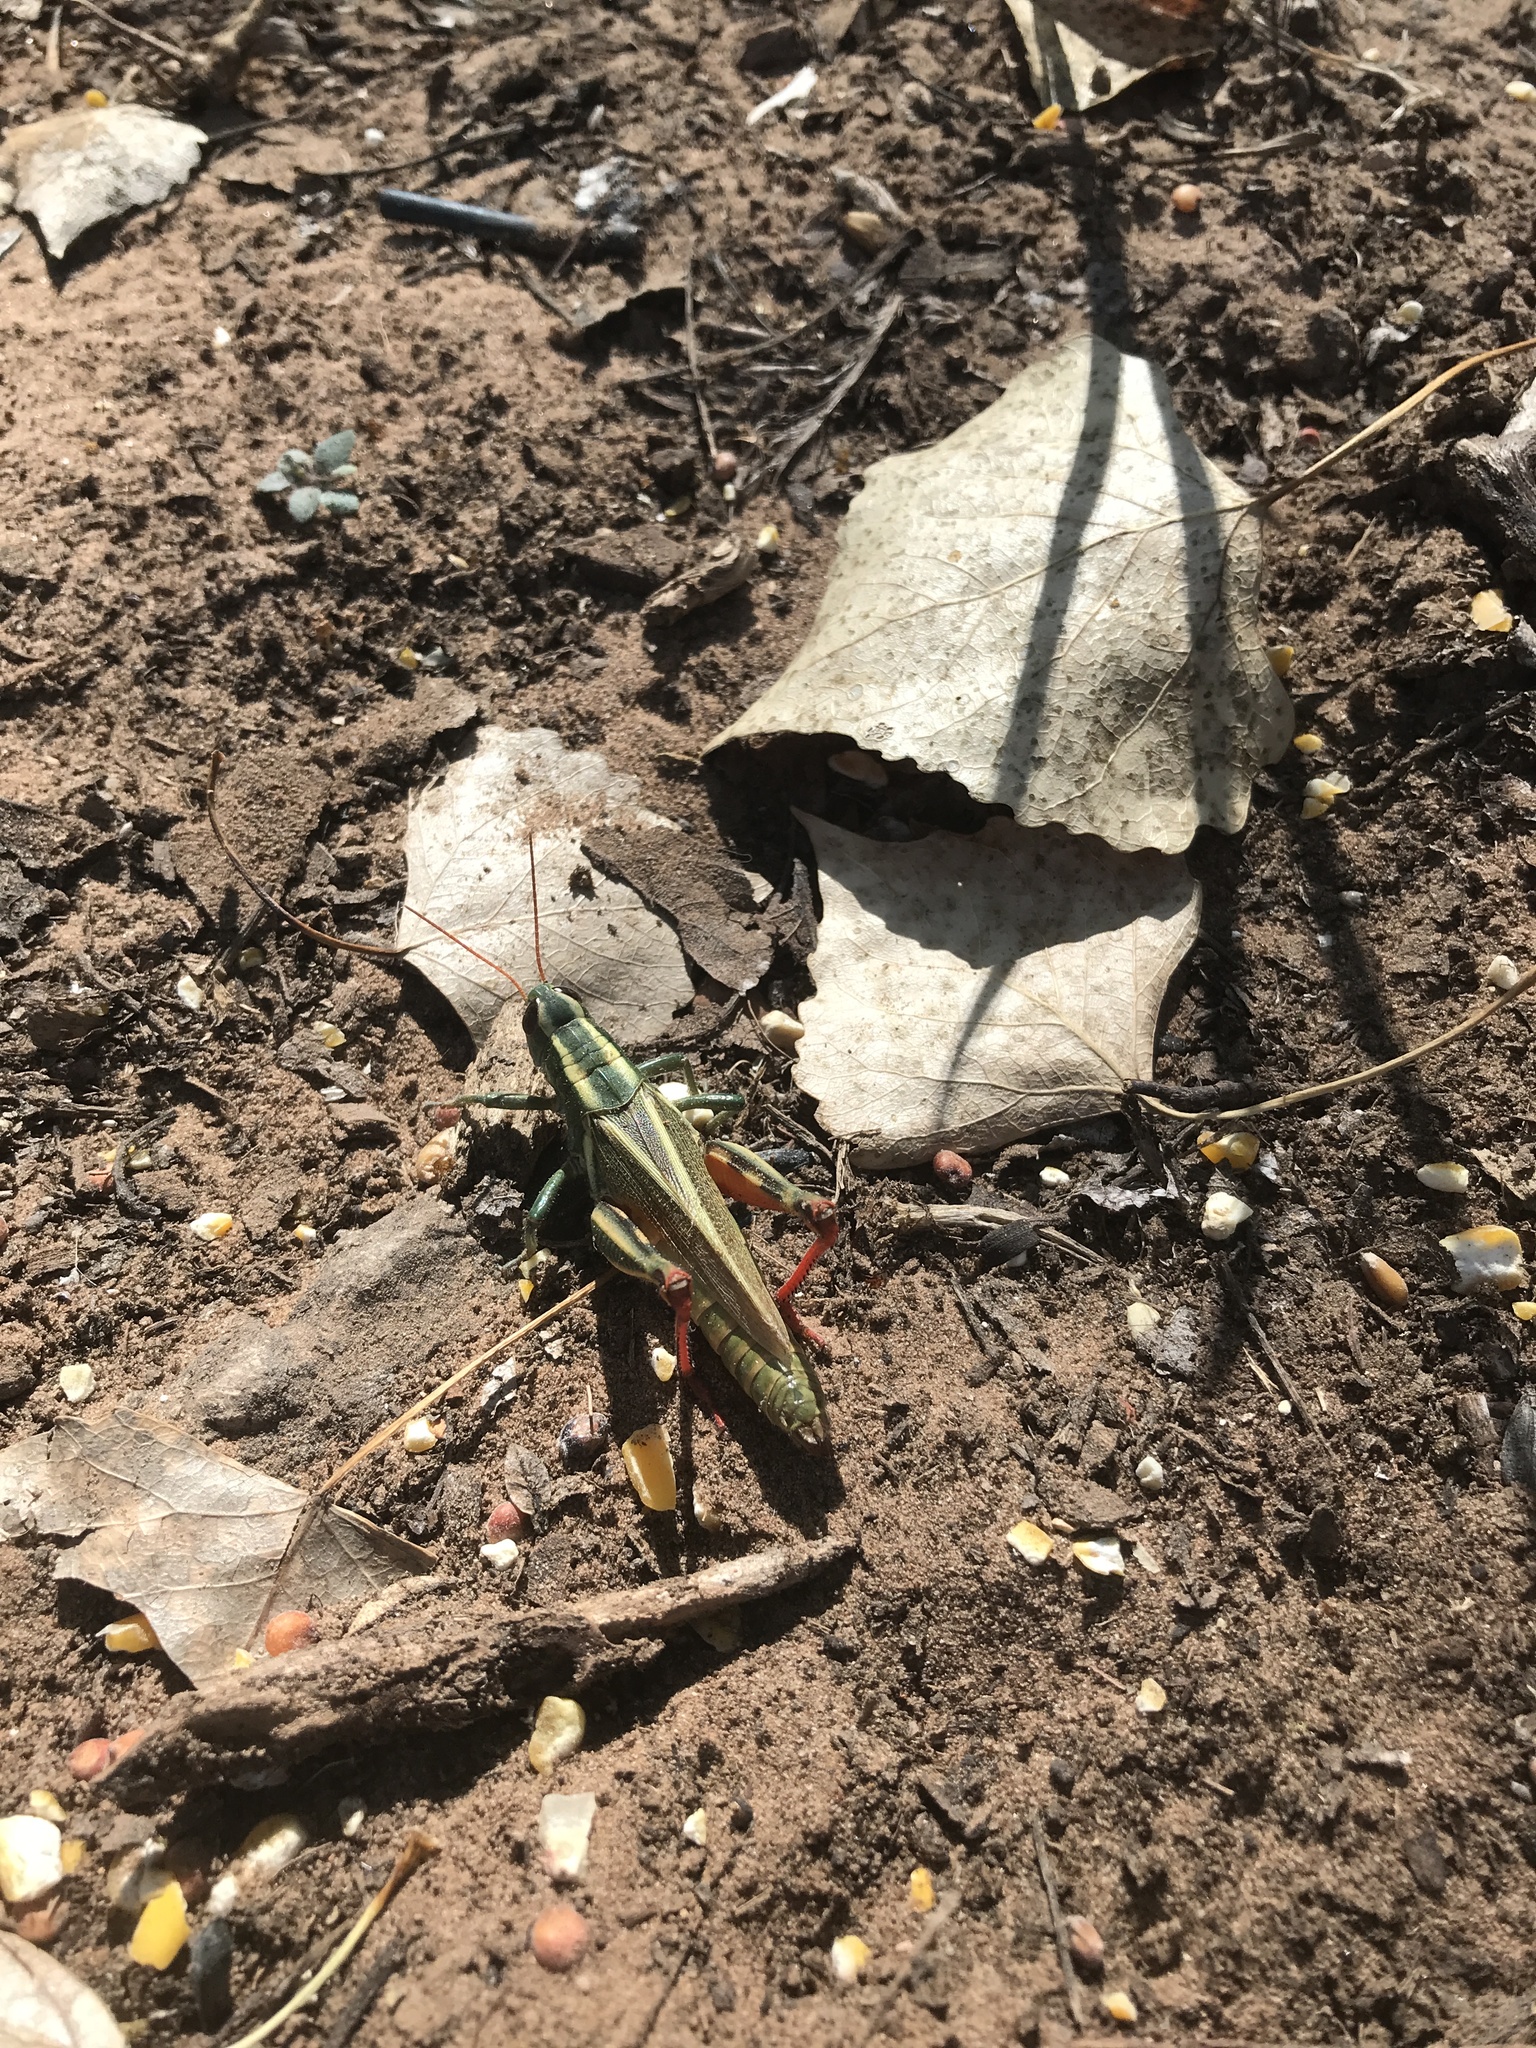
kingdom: Animalia
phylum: Arthropoda
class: Insecta
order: Orthoptera
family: Acrididae
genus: Melanoplus
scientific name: Melanoplus thomasi
